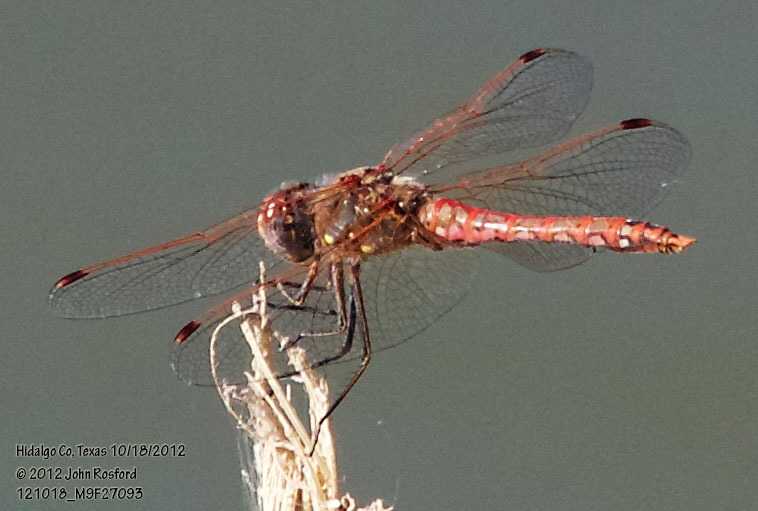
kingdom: Animalia
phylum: Arthropoda
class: Insecta
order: Odonata
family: Libellulidae
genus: Sympetrum
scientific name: Sympetrum corruptum
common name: Variegated meadowhawk
